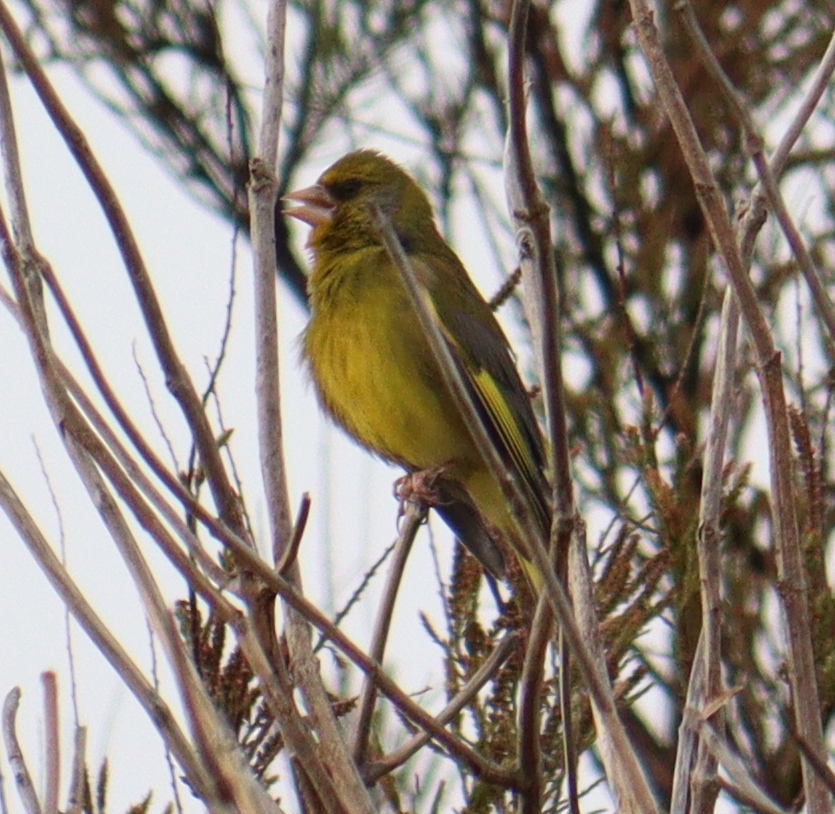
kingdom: Plantae
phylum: Tracheophyta
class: Liliopsida
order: Poales
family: Poaceae
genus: Chloris
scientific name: Chloris chloris
